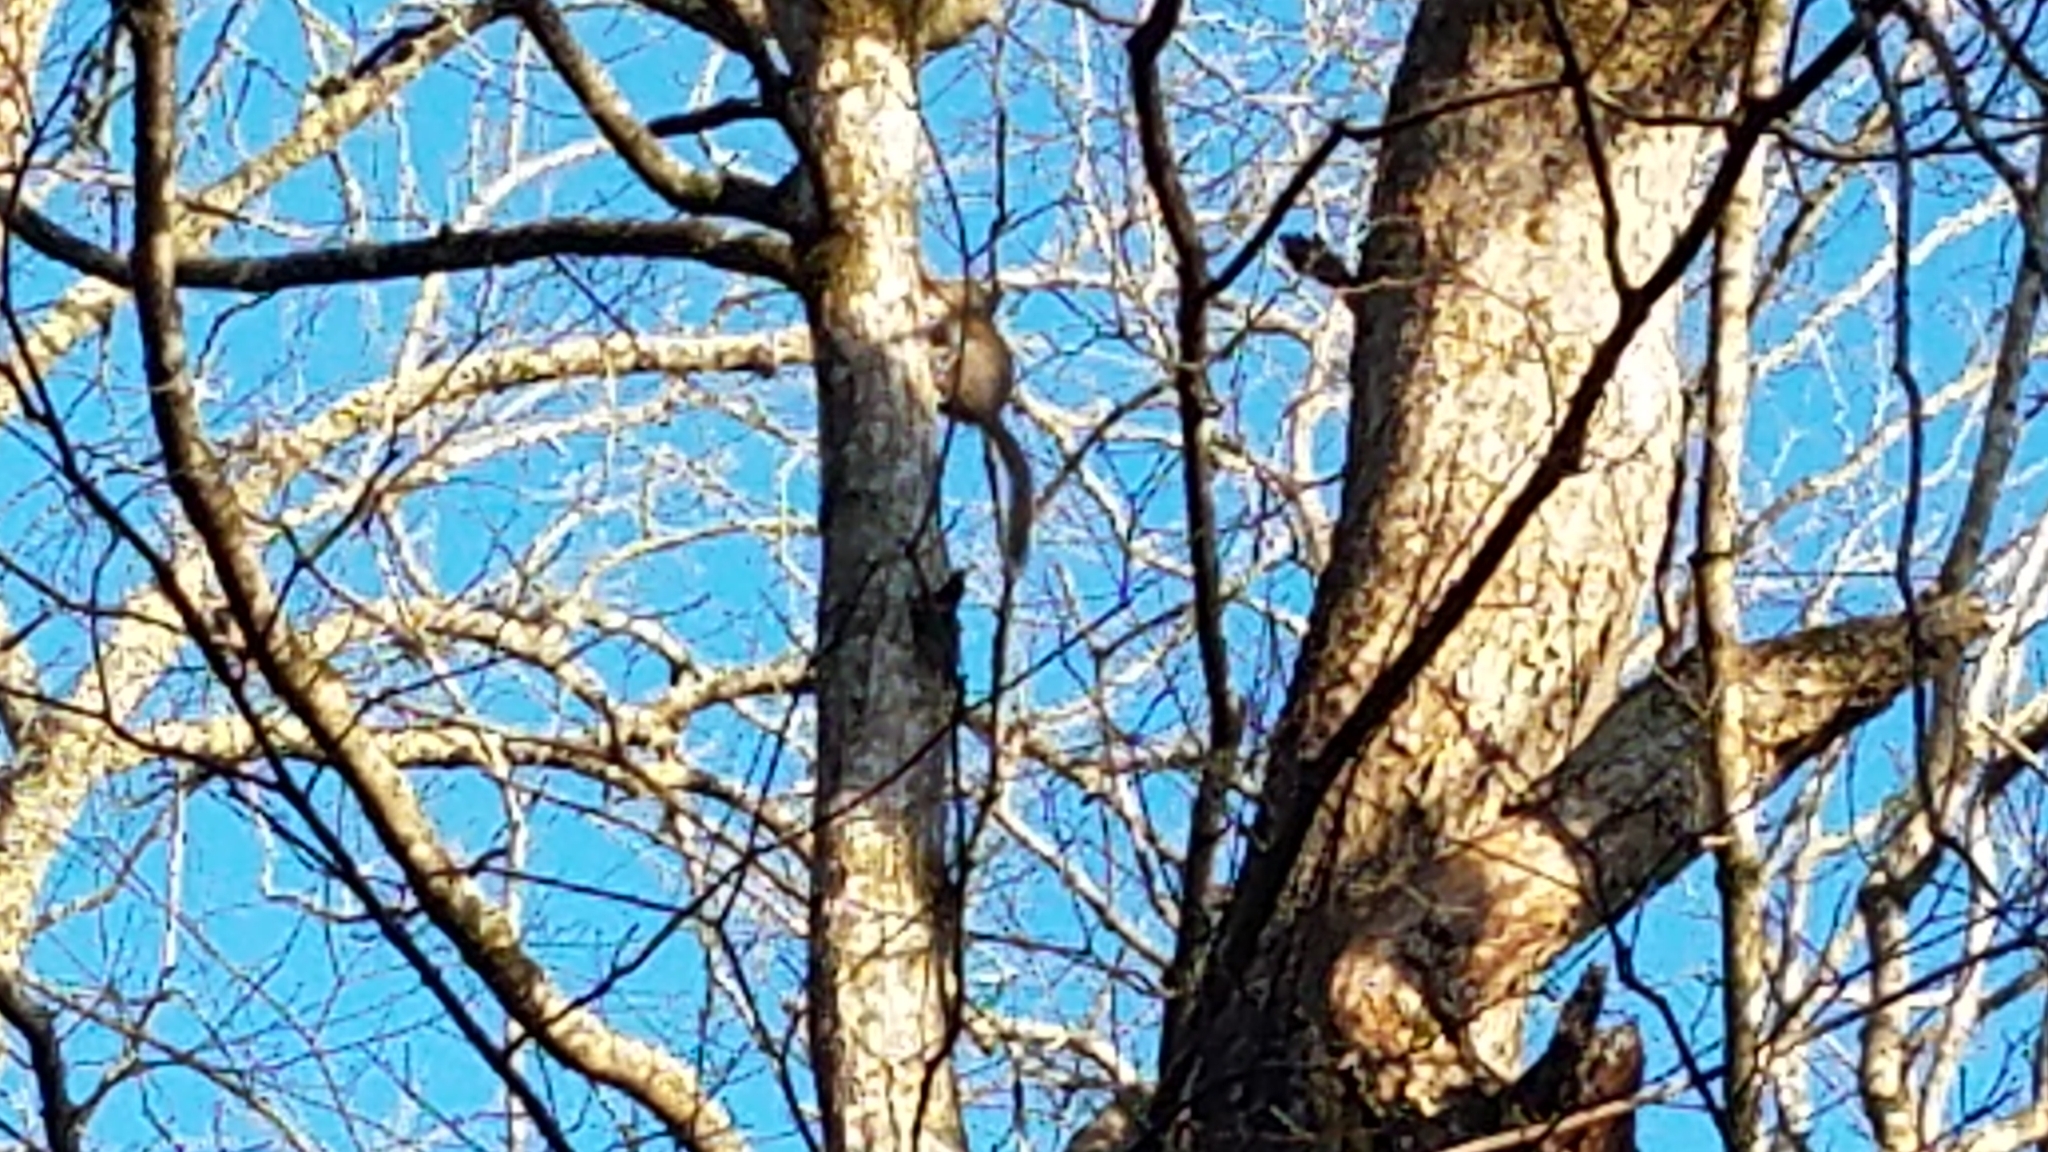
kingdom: Animalia
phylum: Chordata
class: Mammalia
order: Rodentia
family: Sciuridae
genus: Sciurus
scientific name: Sciurus carolinensis
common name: Eastern gray squirrel
